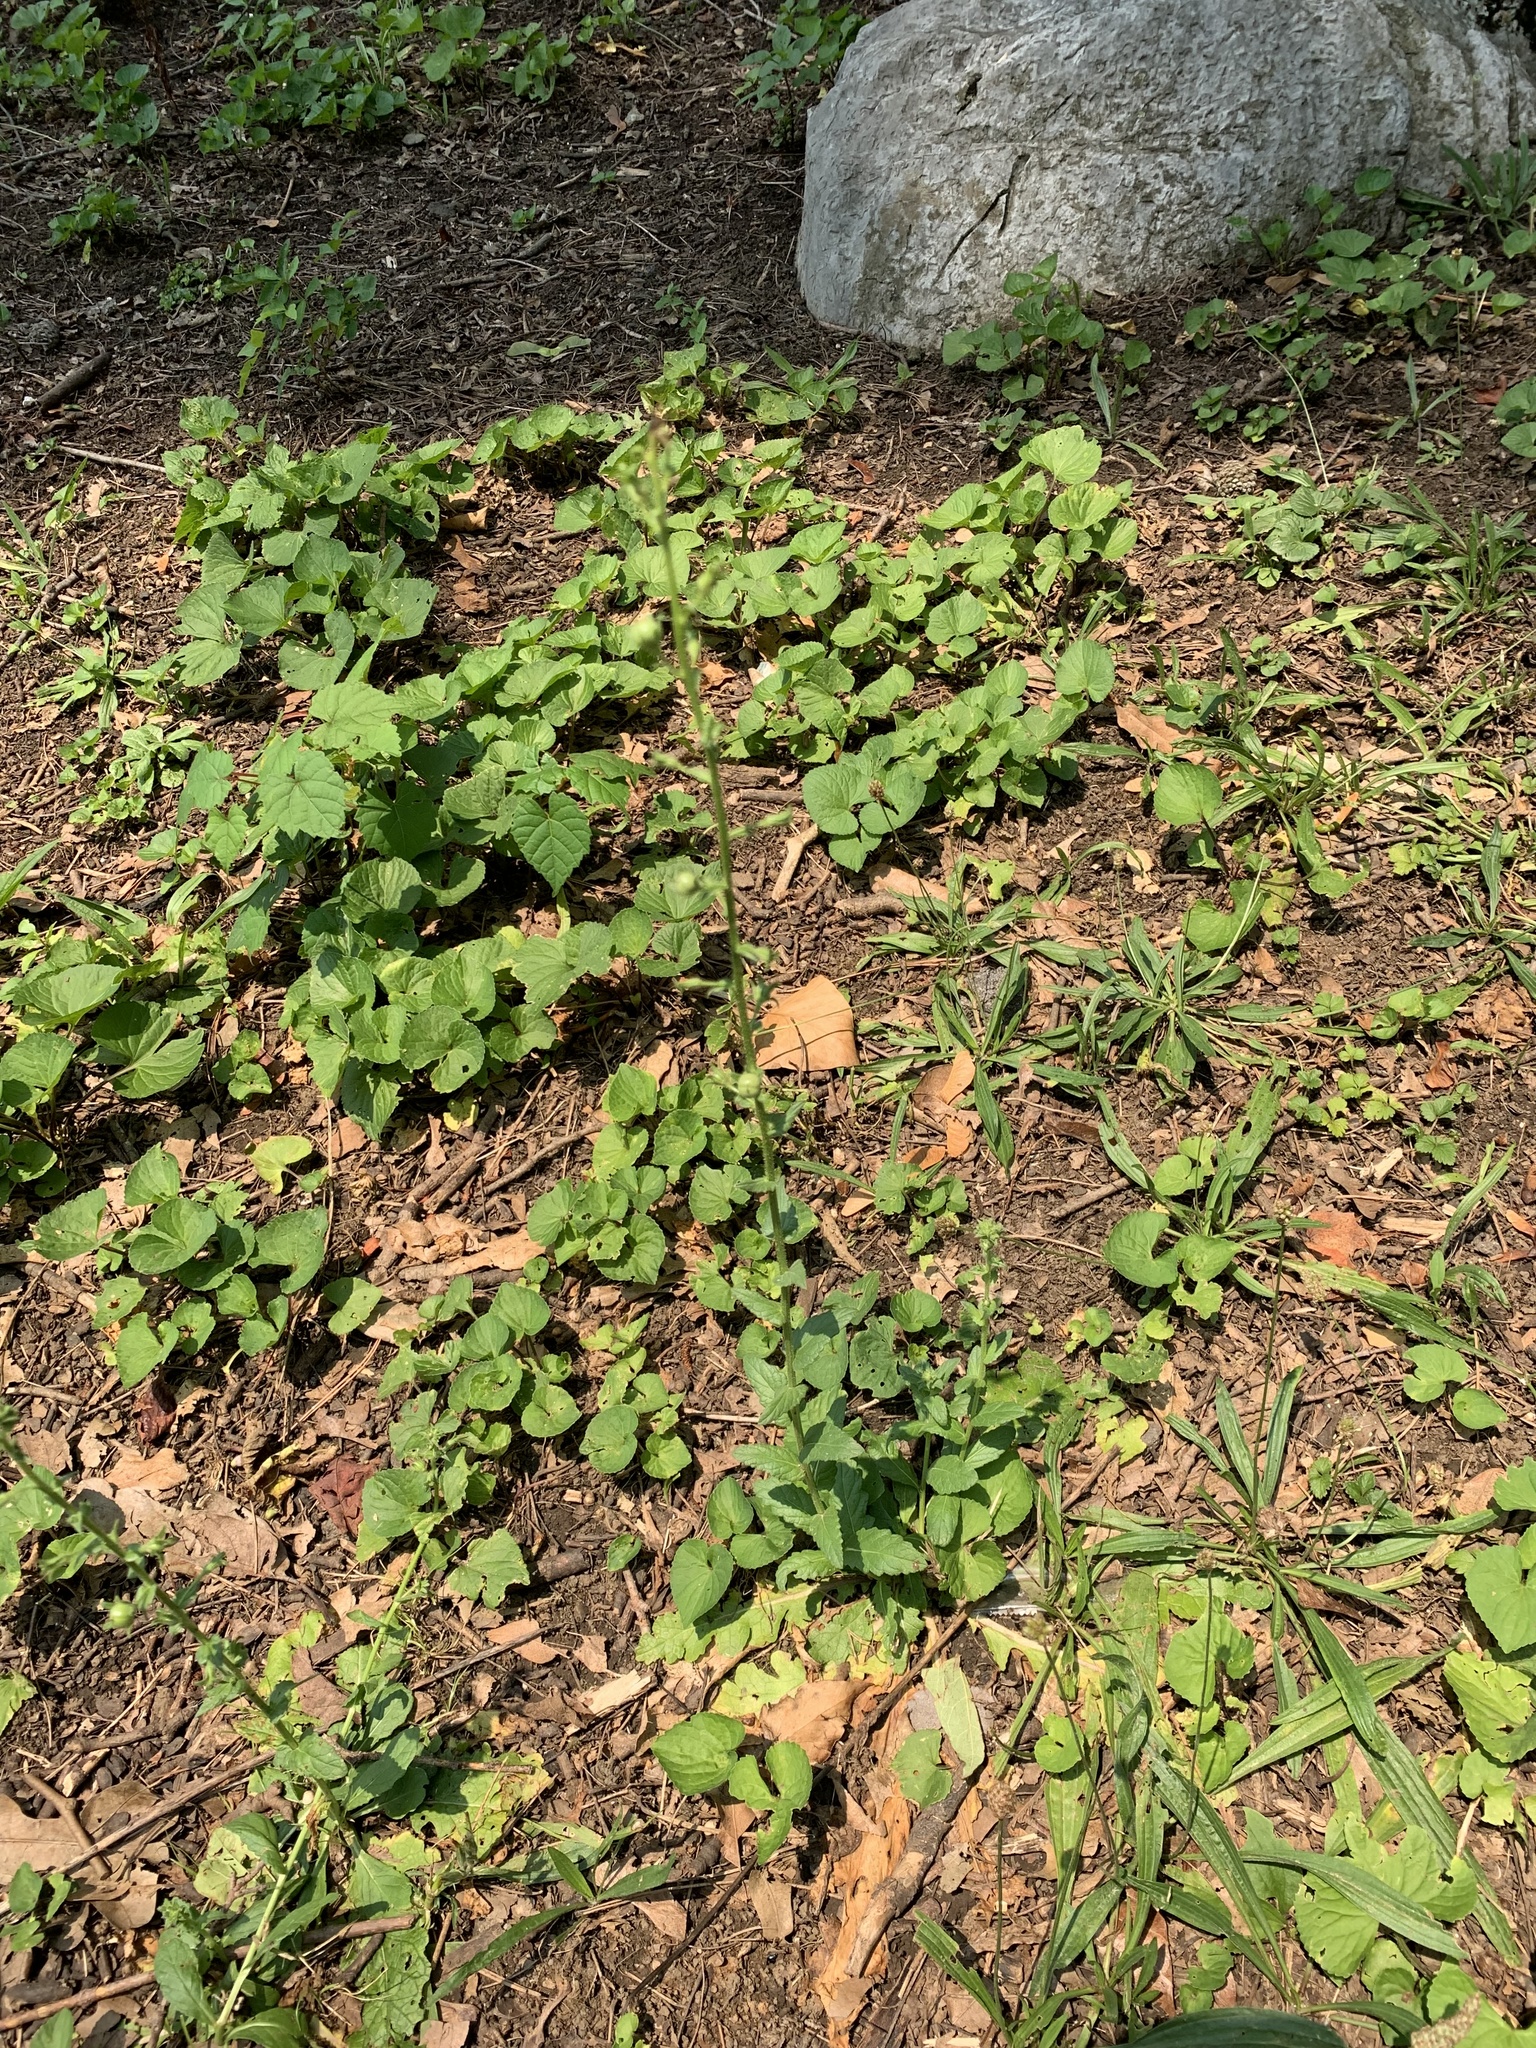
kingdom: Plantae
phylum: Tracheophyta
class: Magnoliopsida
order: Lamiales
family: Scrophulariaceae
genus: Verbascum
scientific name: Verbascum blattaria
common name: Moth mullein
